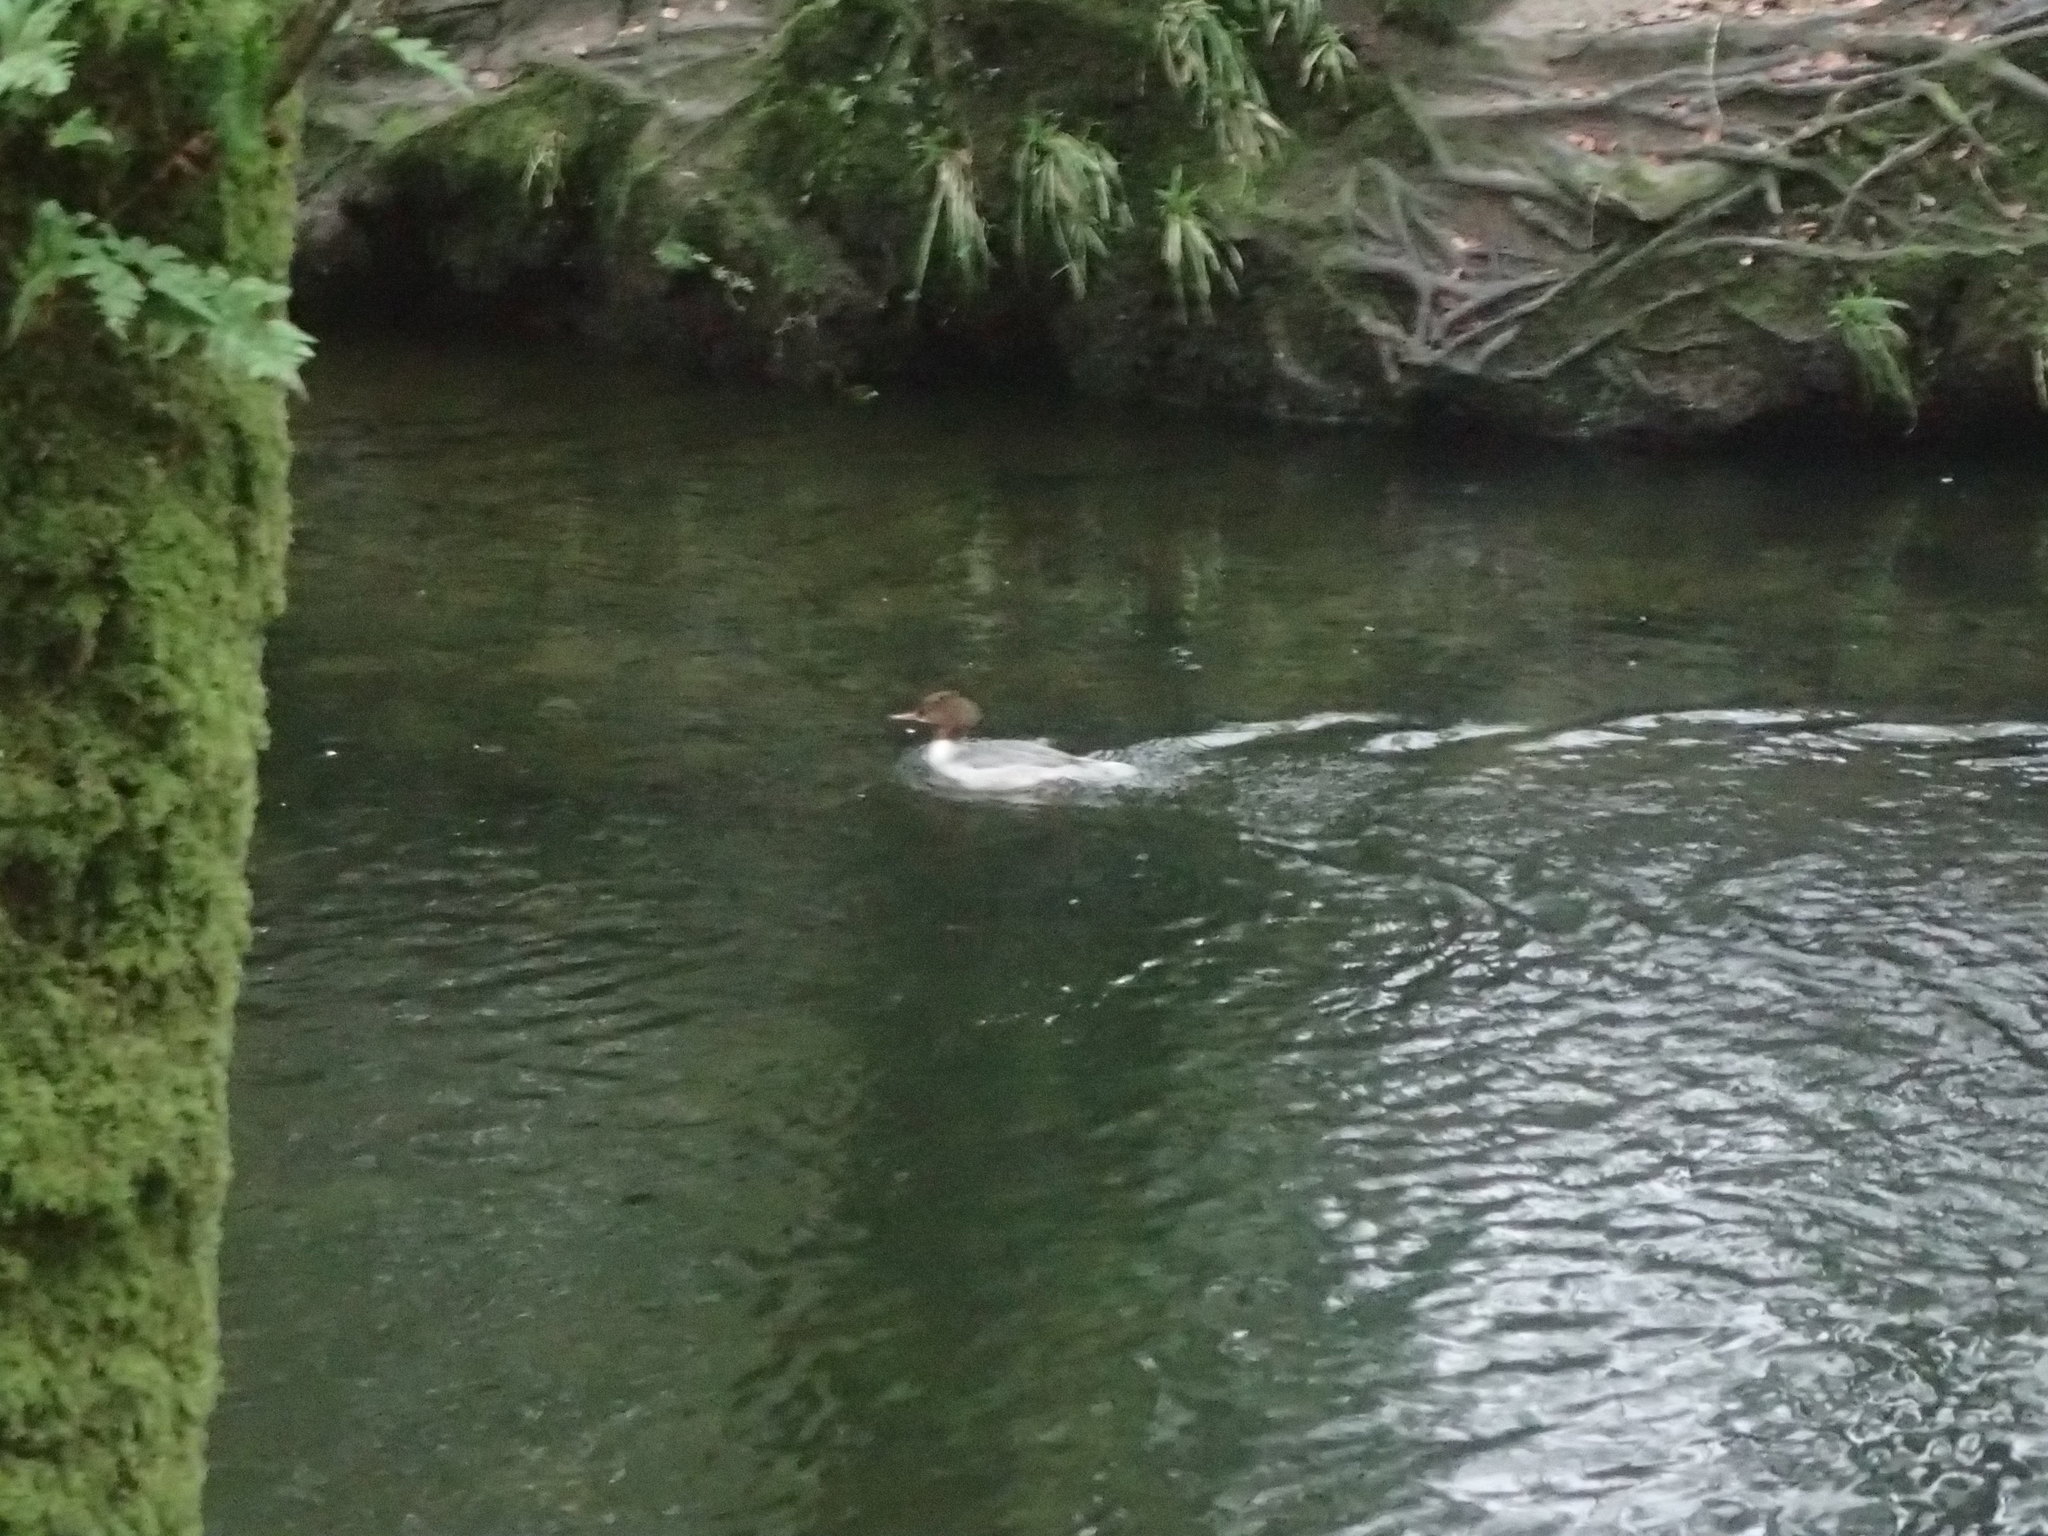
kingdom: Animalia
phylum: Chordata
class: Aves
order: Anseriformes
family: Anatidae
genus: Mergus
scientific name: Mergus merganser
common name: Common merganser
